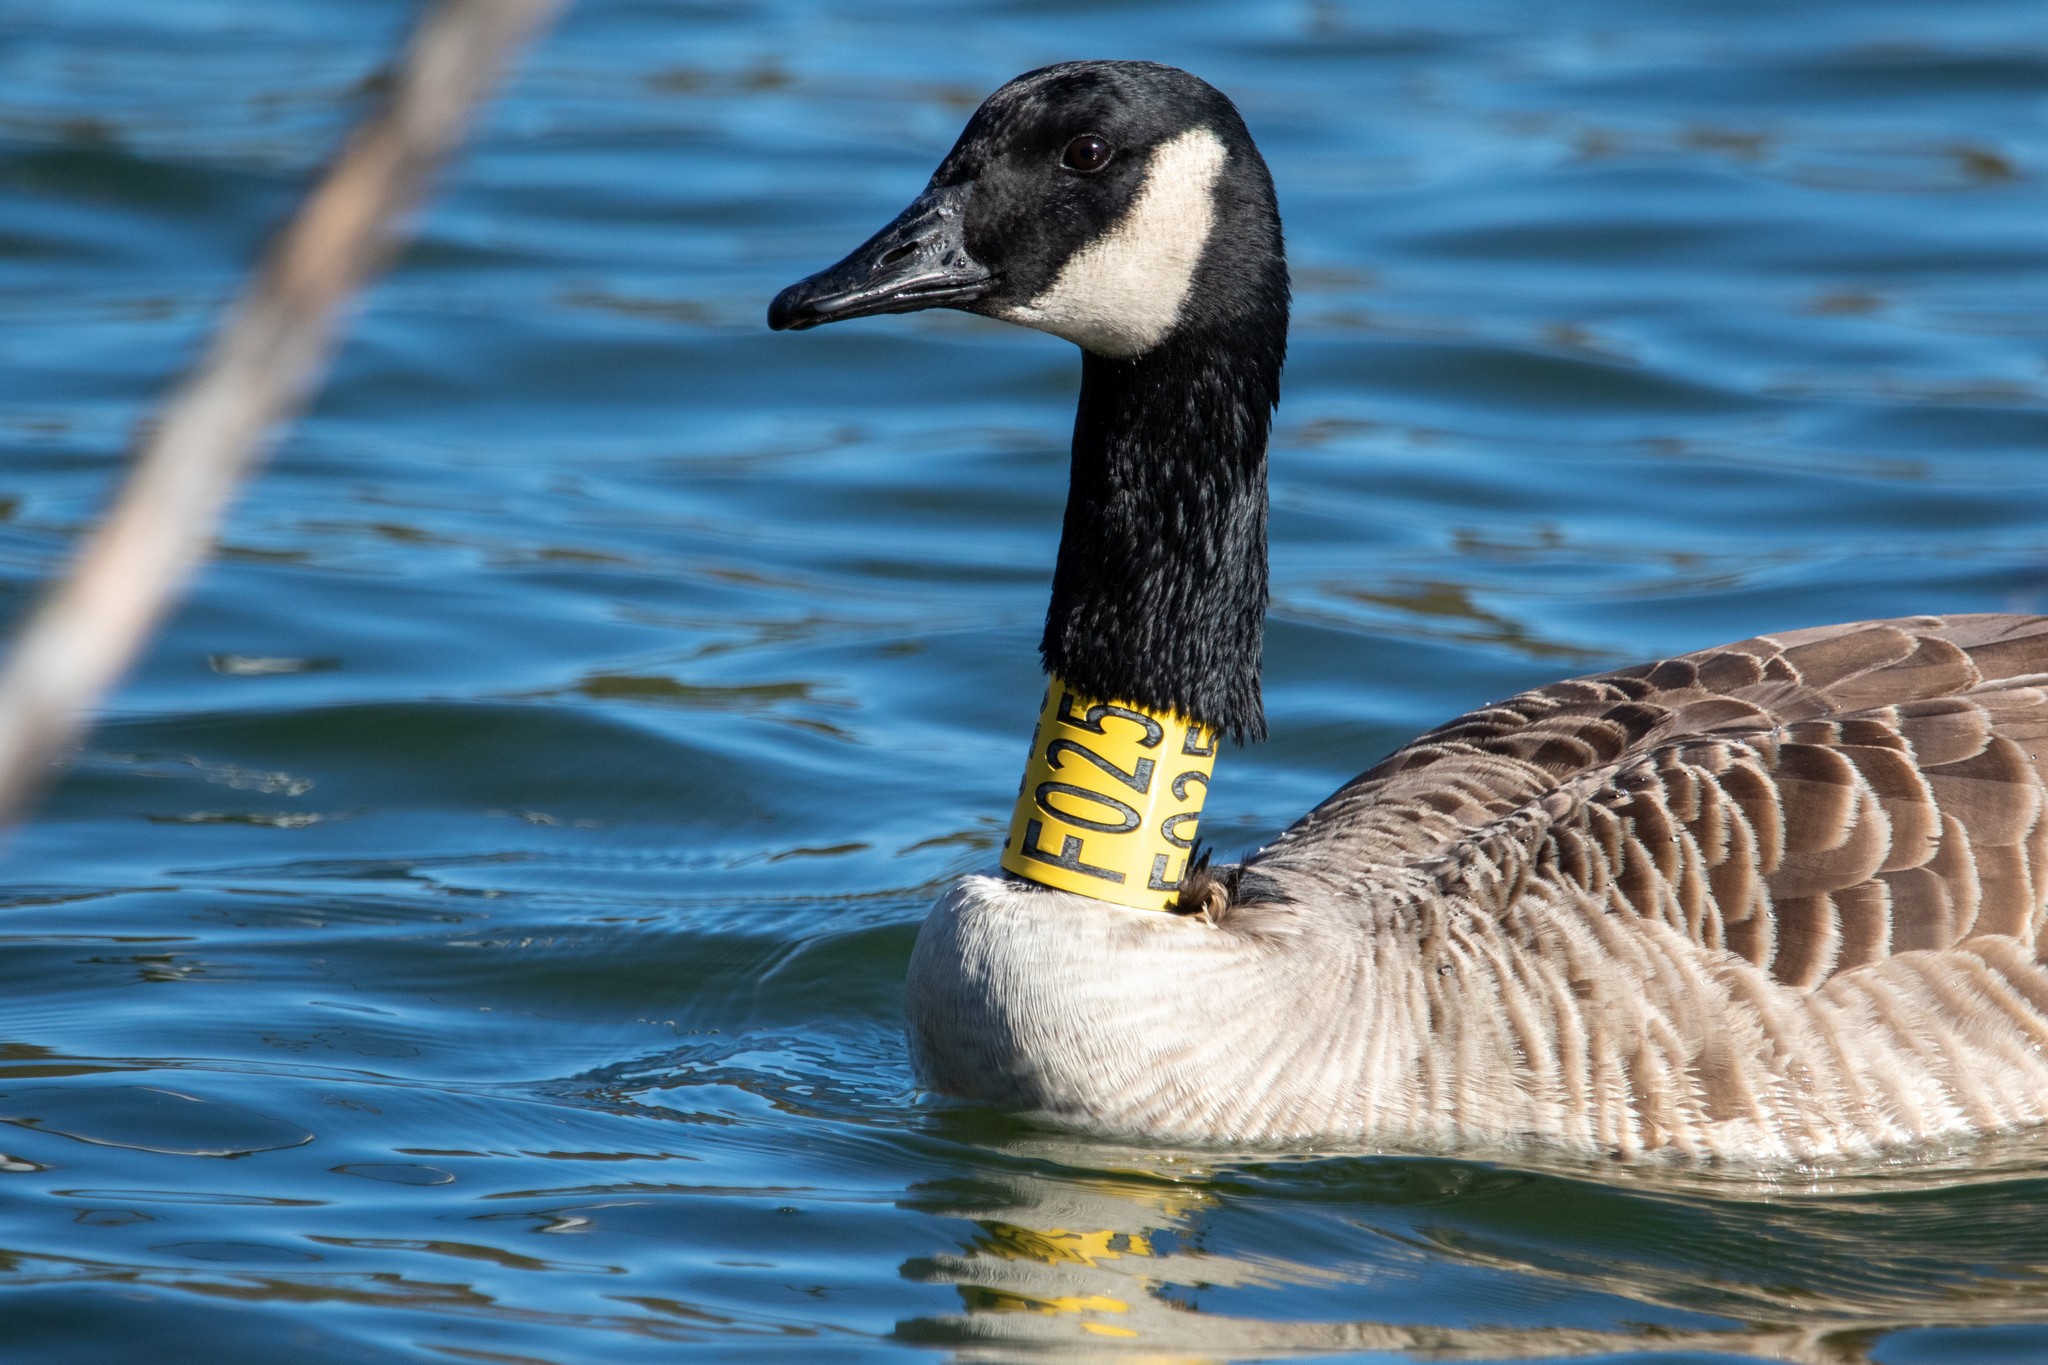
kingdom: Animalia
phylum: Chordata
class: Aves
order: Anseriformes
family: Anatidae
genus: Branta
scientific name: Branta canadensis
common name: Canada goose
